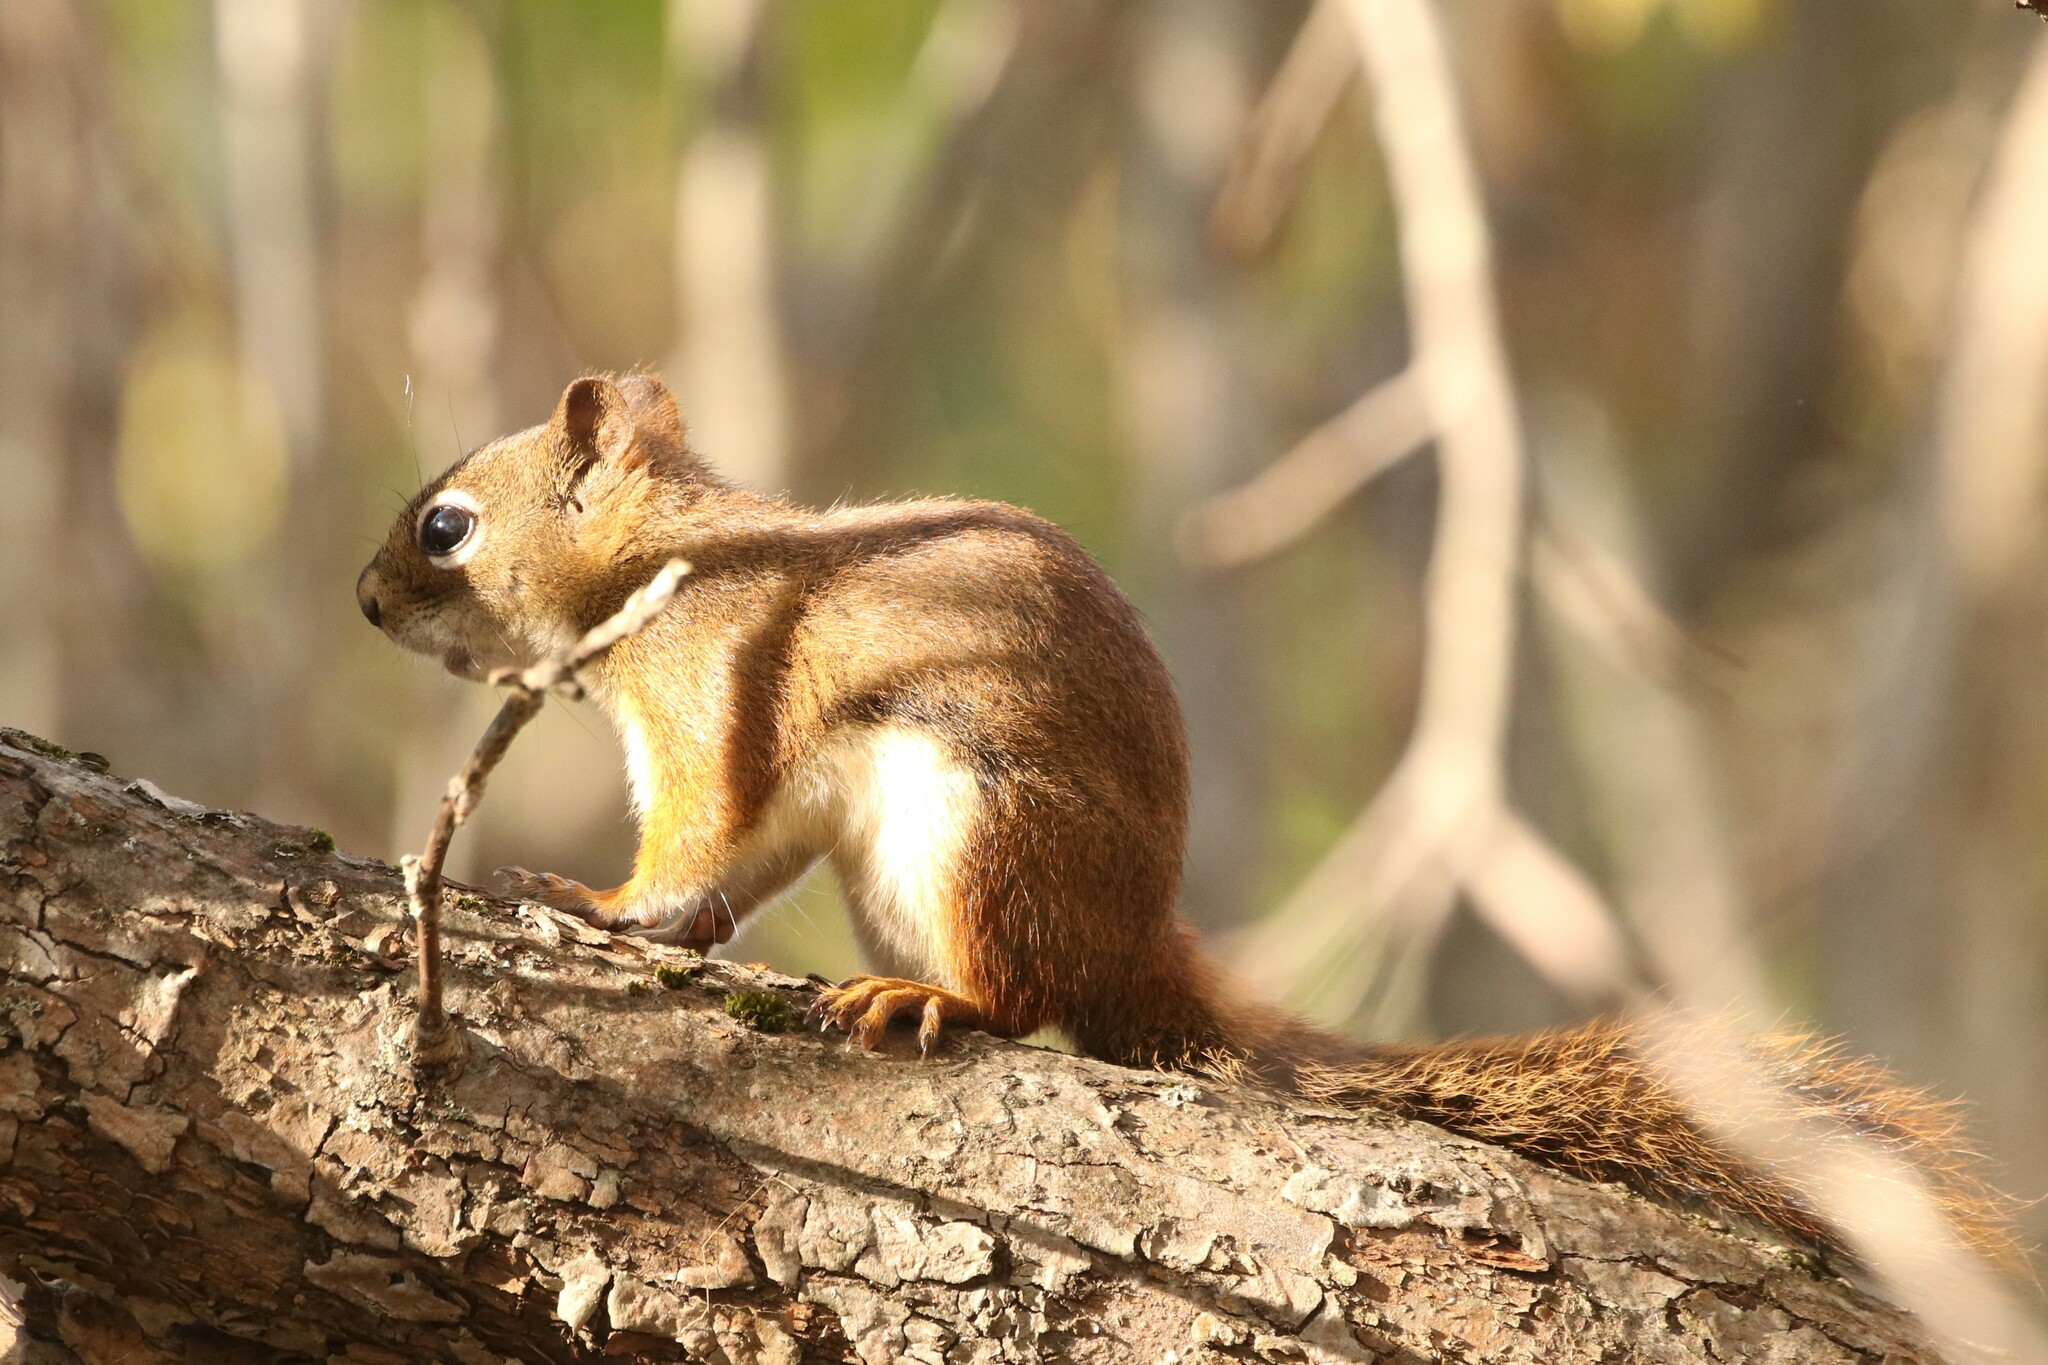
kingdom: Animalia
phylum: Chordata
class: Mammalia
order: Rodentia
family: Sciuridae
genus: Tamiasciurus
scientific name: Tamiasciurus hudsonicus
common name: Red squirrel
